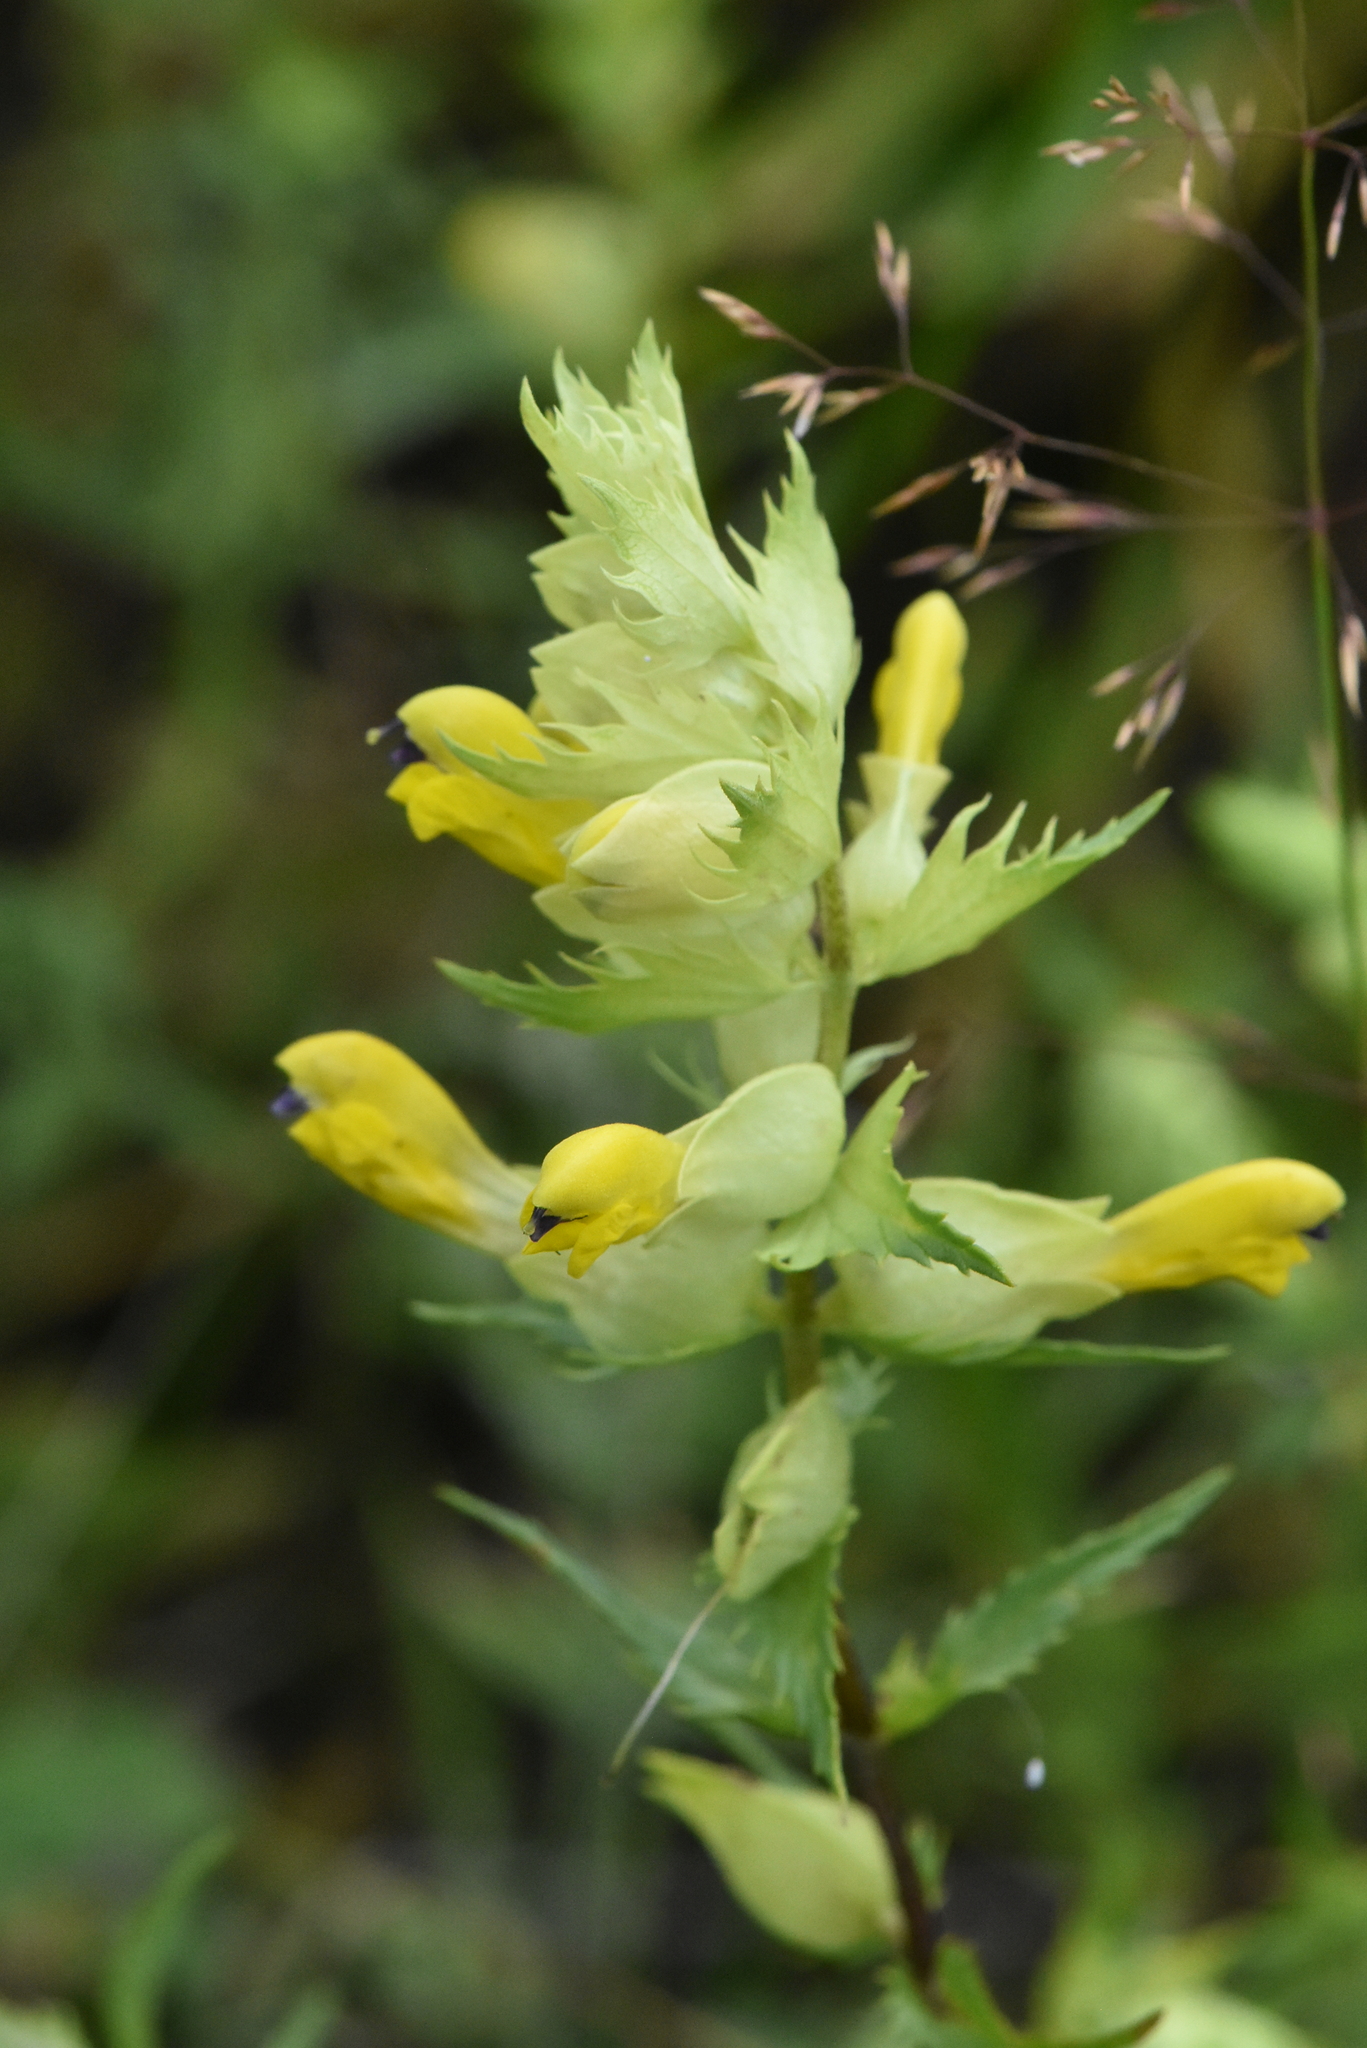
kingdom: Plantae
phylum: Tracheophyta
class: Magnoliopsida
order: Lamiales
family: Orobanchaceae
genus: Rhinanthus
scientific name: Rhinanthus serotinus
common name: Late-flowering yellow rattle
